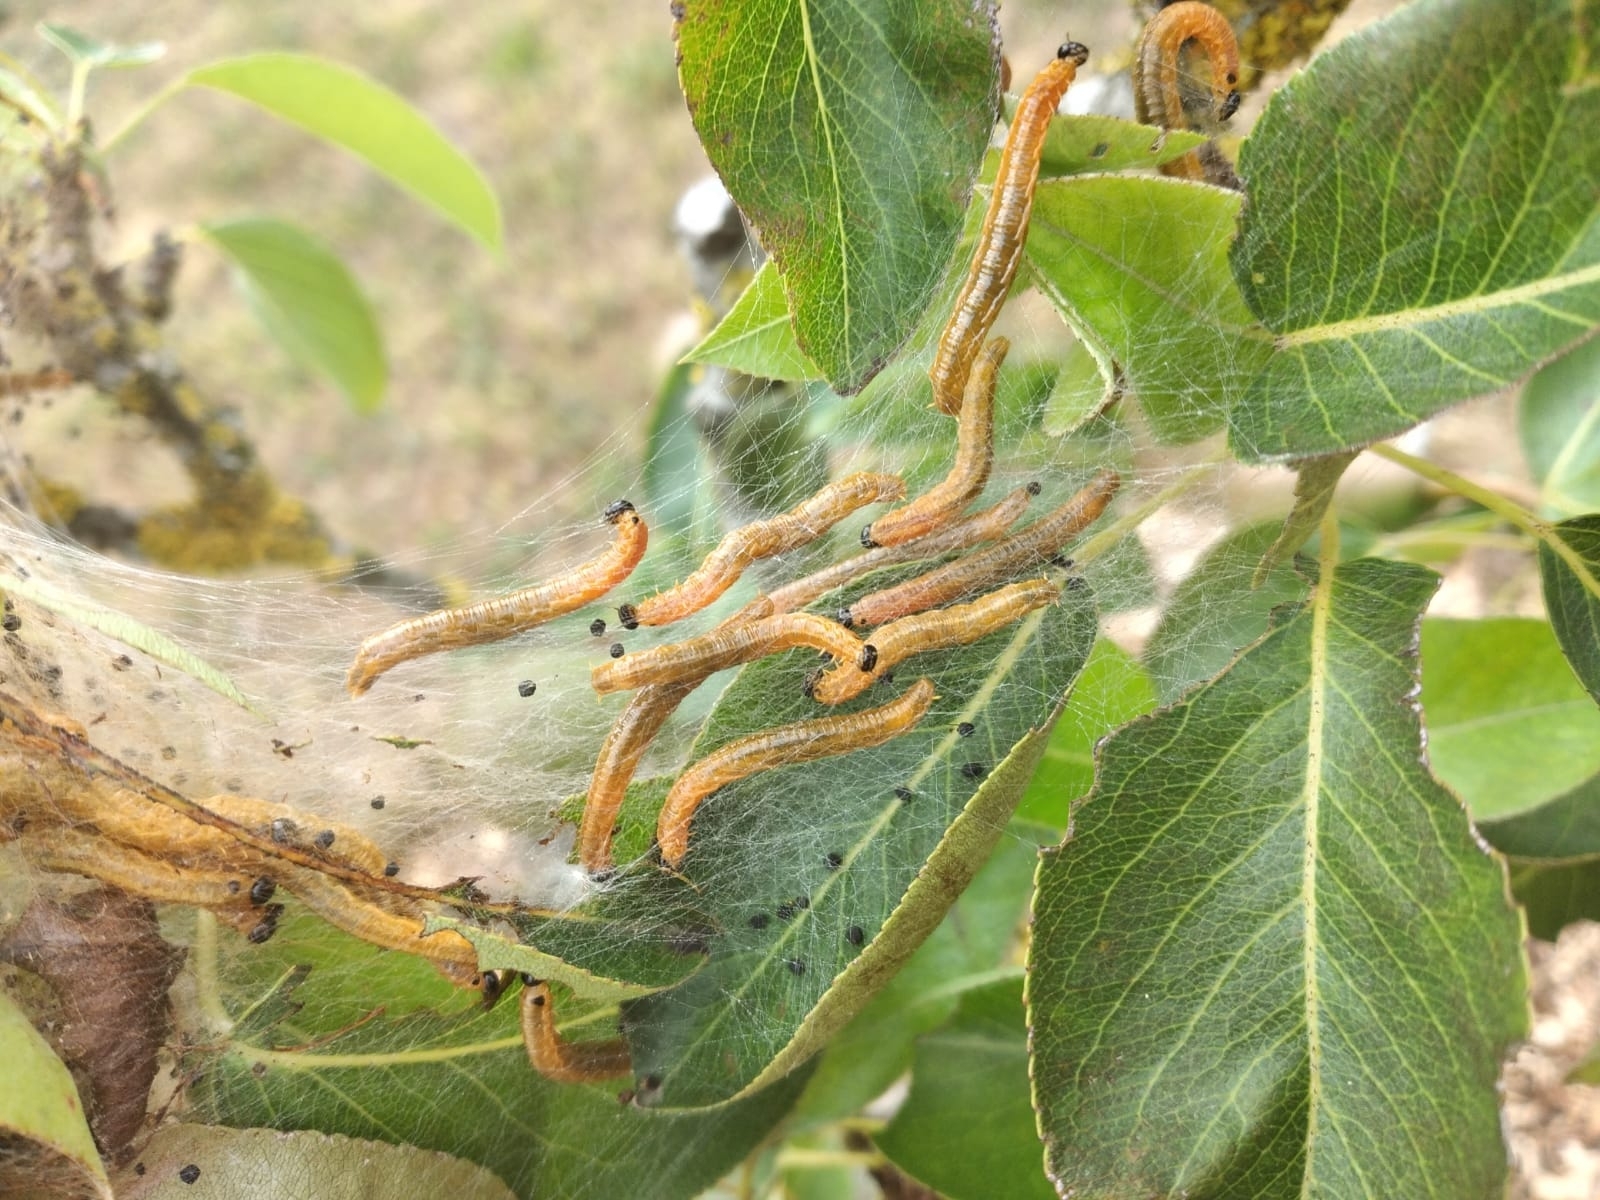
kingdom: Animalia
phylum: Arthropoda
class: Insecta
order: Hymenoptera
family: Pamphiliidae
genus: Neurotoma
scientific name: Neurotoma saltuum
